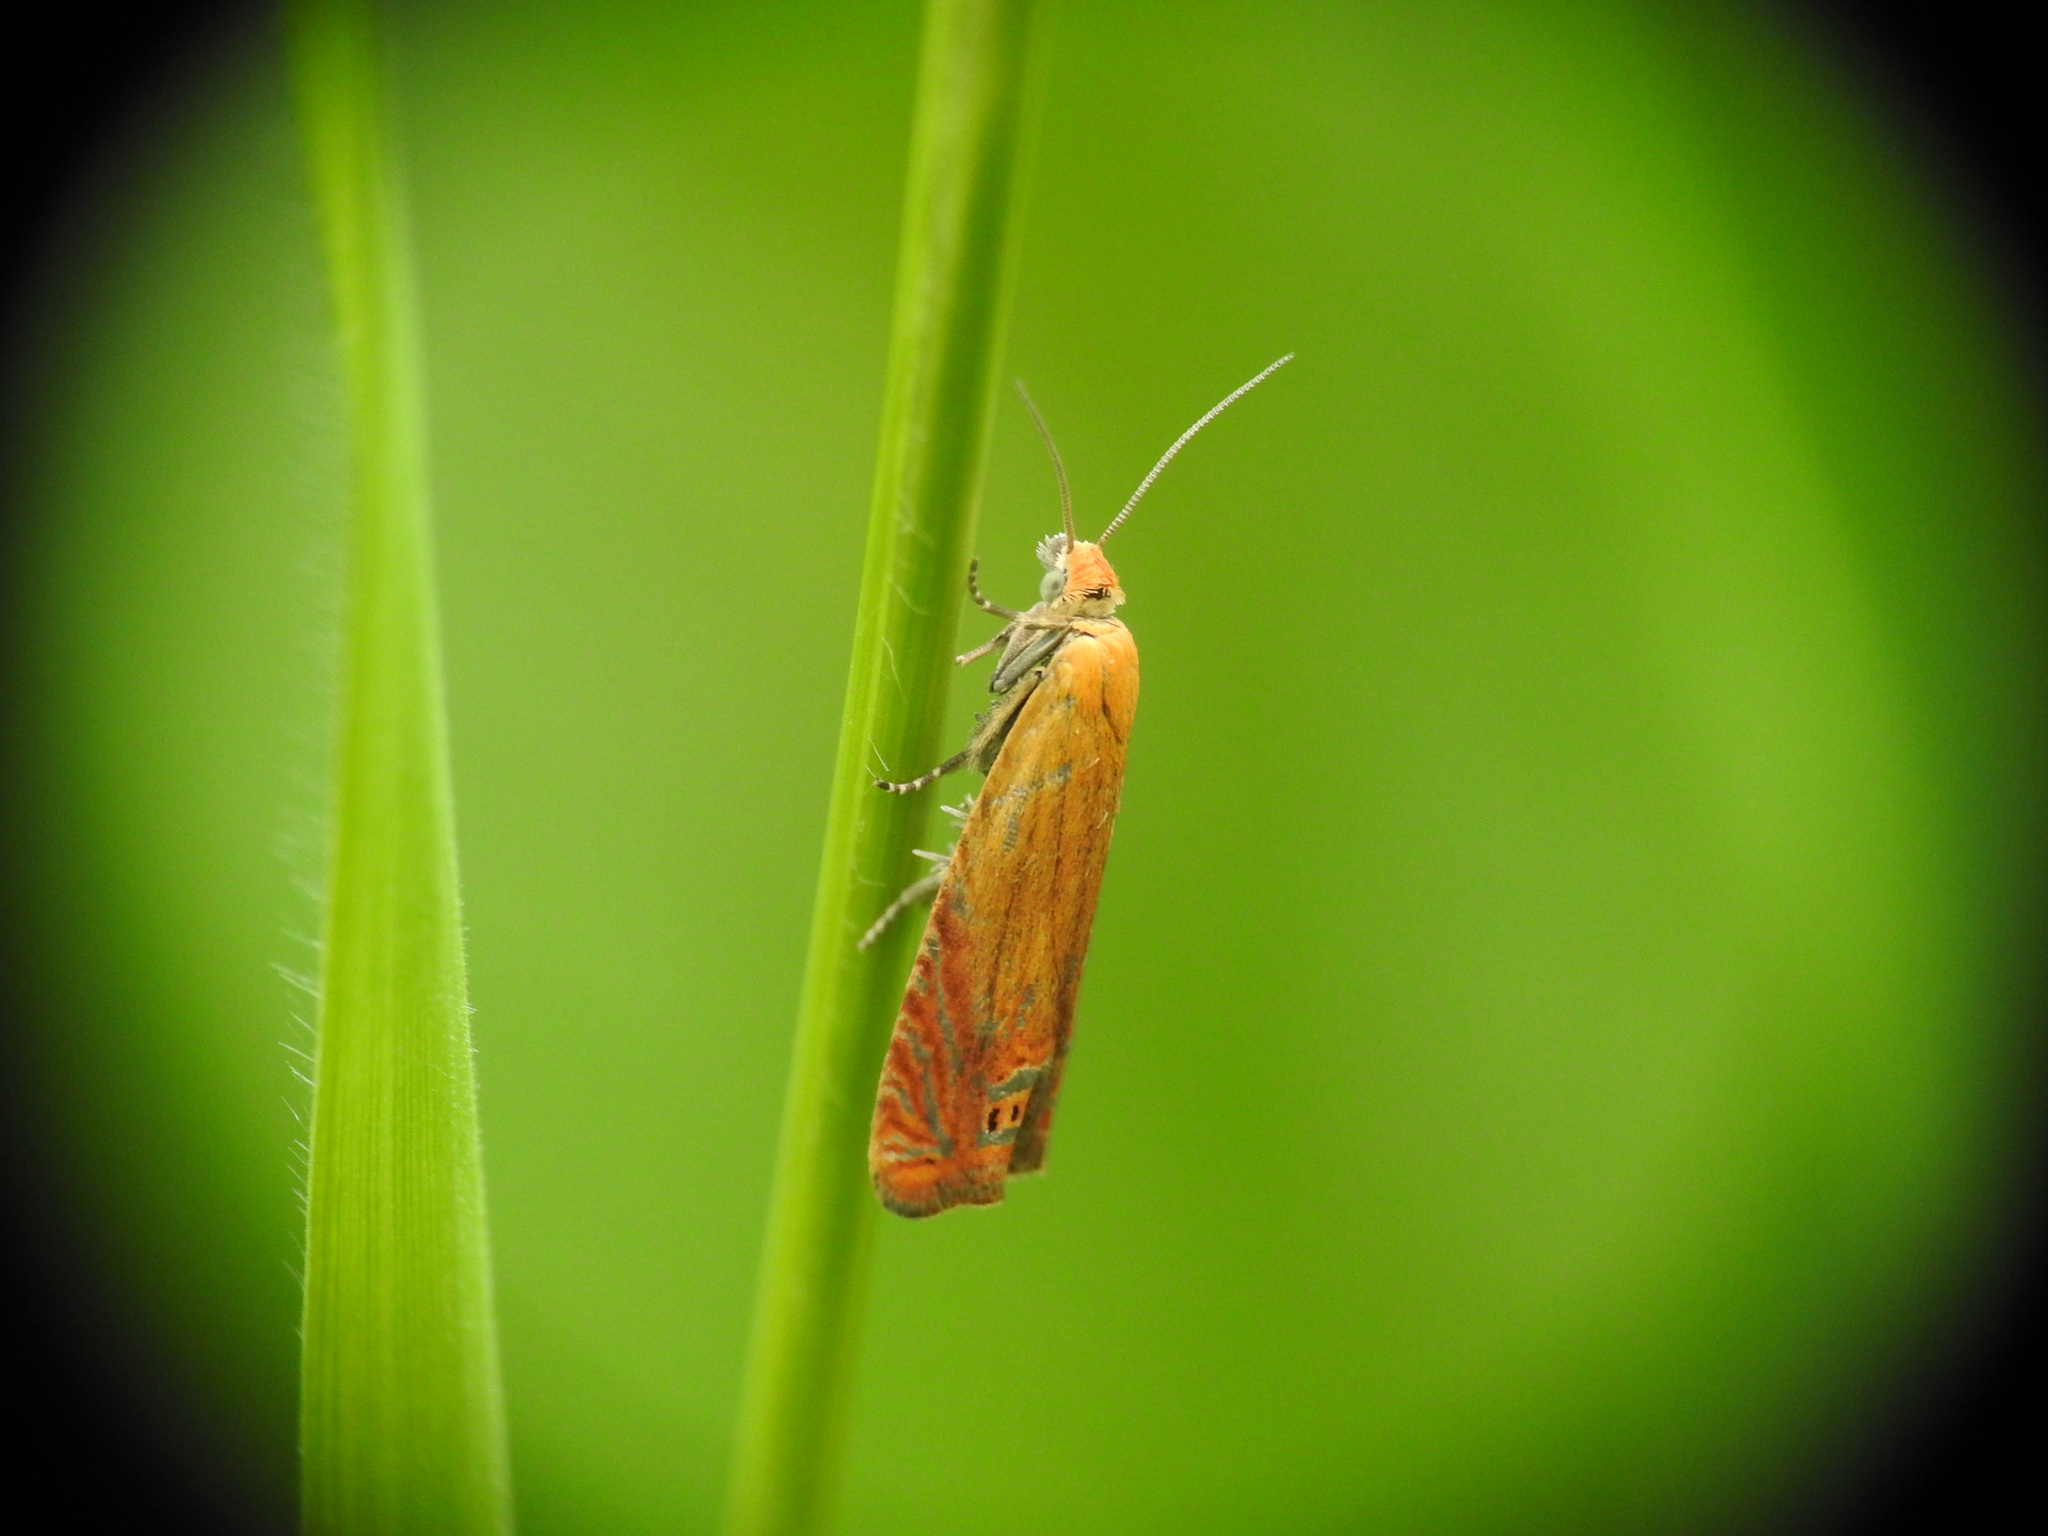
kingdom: Animalia
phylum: Arthropoda
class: Insecta
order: Lepidoptera
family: Tortricidae
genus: Lathronympha
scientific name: Lathronympha strigana
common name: Red piercer
